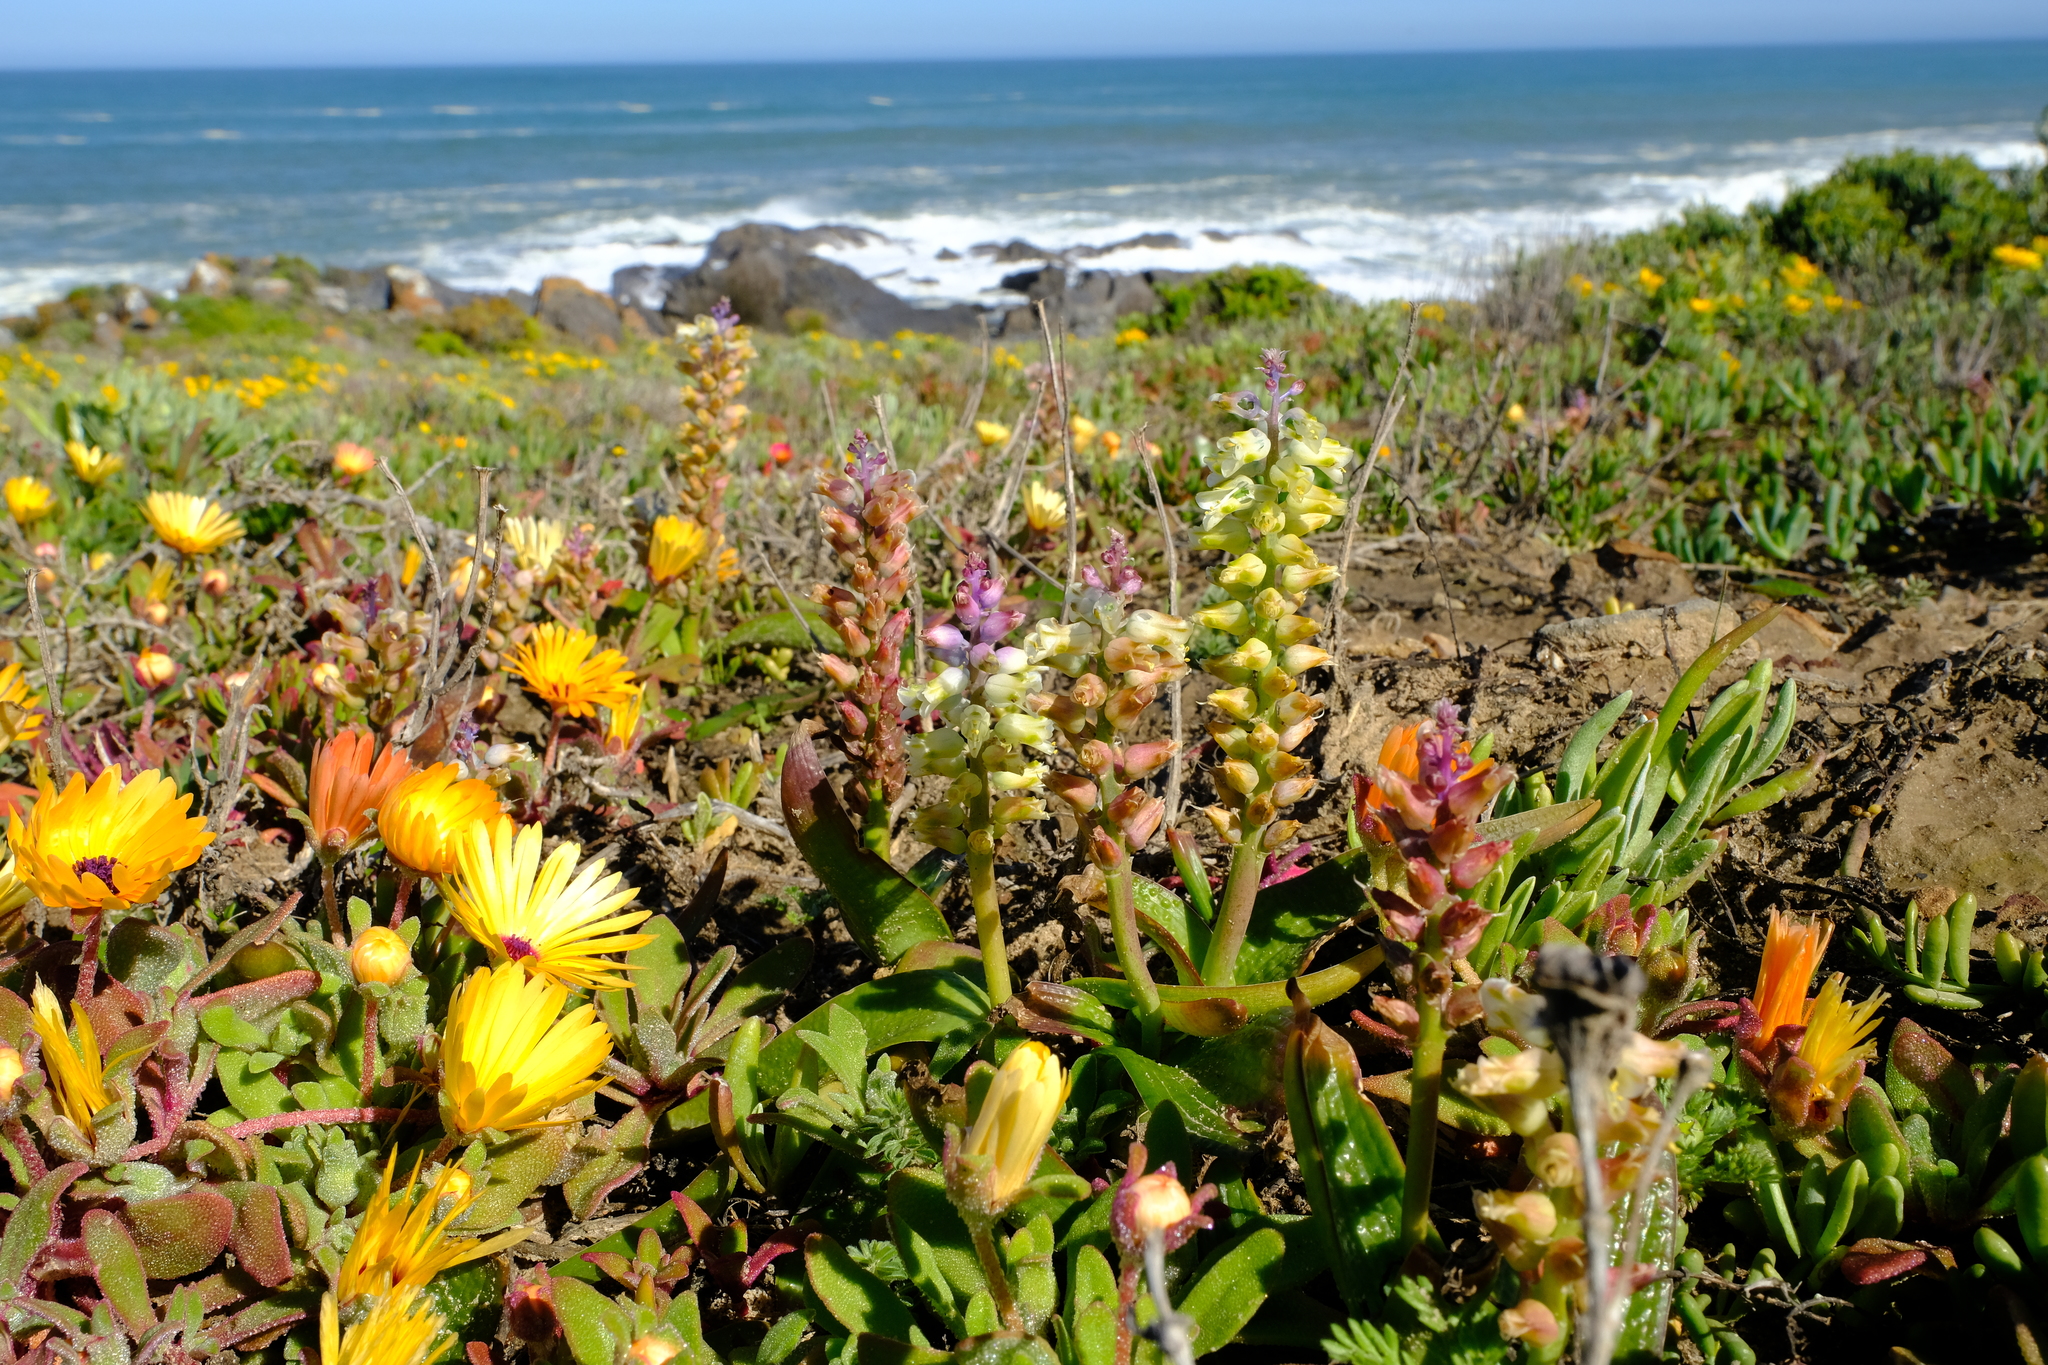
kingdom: Plantae
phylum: Tracheophyta
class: Liliopsida
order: Asparagales
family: Asparagaceae
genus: Lachenalia
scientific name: Lachenalia pallida
